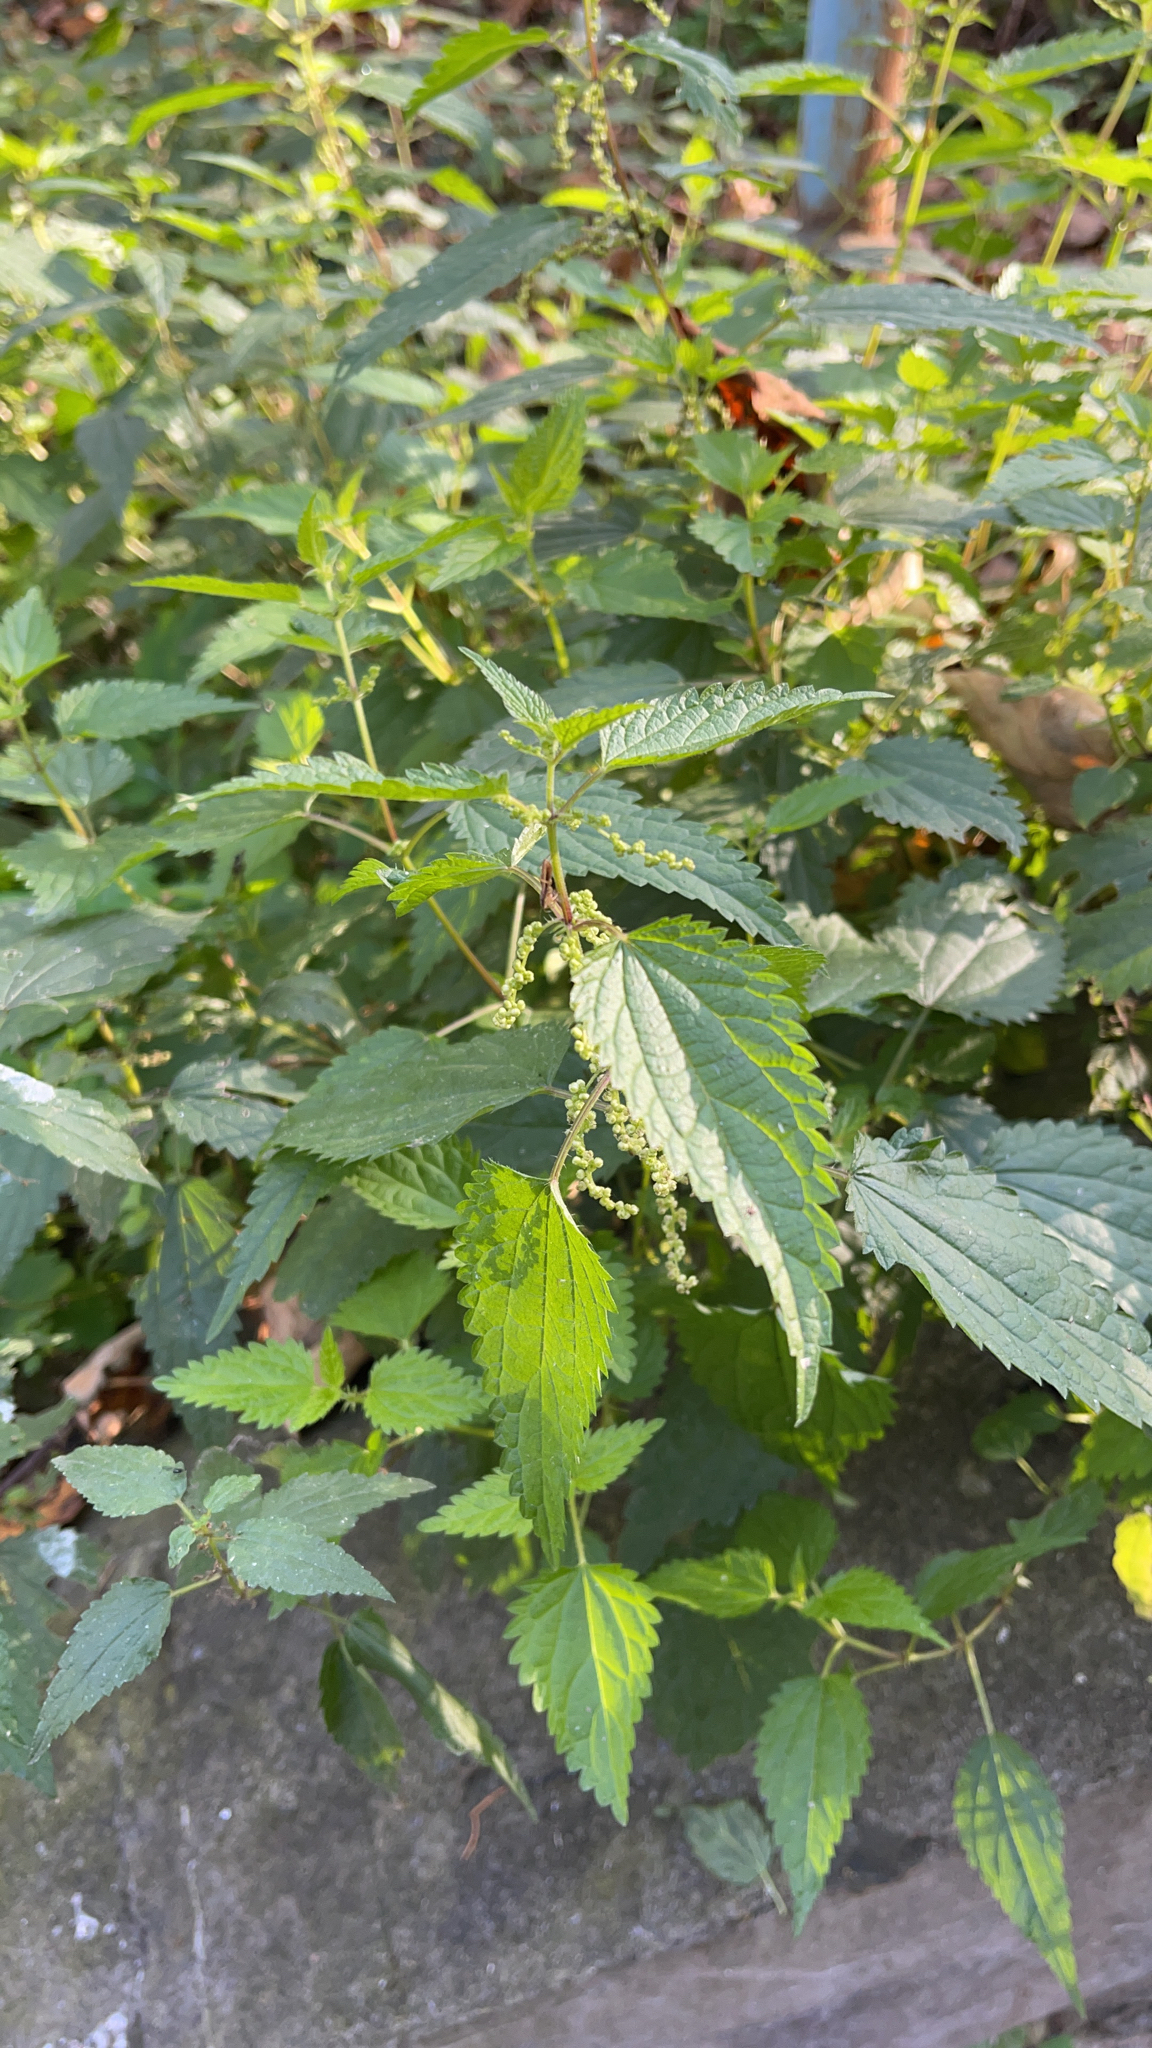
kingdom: Plantae
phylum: Tracheophyta
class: Magnoliopsida
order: Rosales
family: Urticaceae
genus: Urtica
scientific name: Urtica dioica
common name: Common nettle
